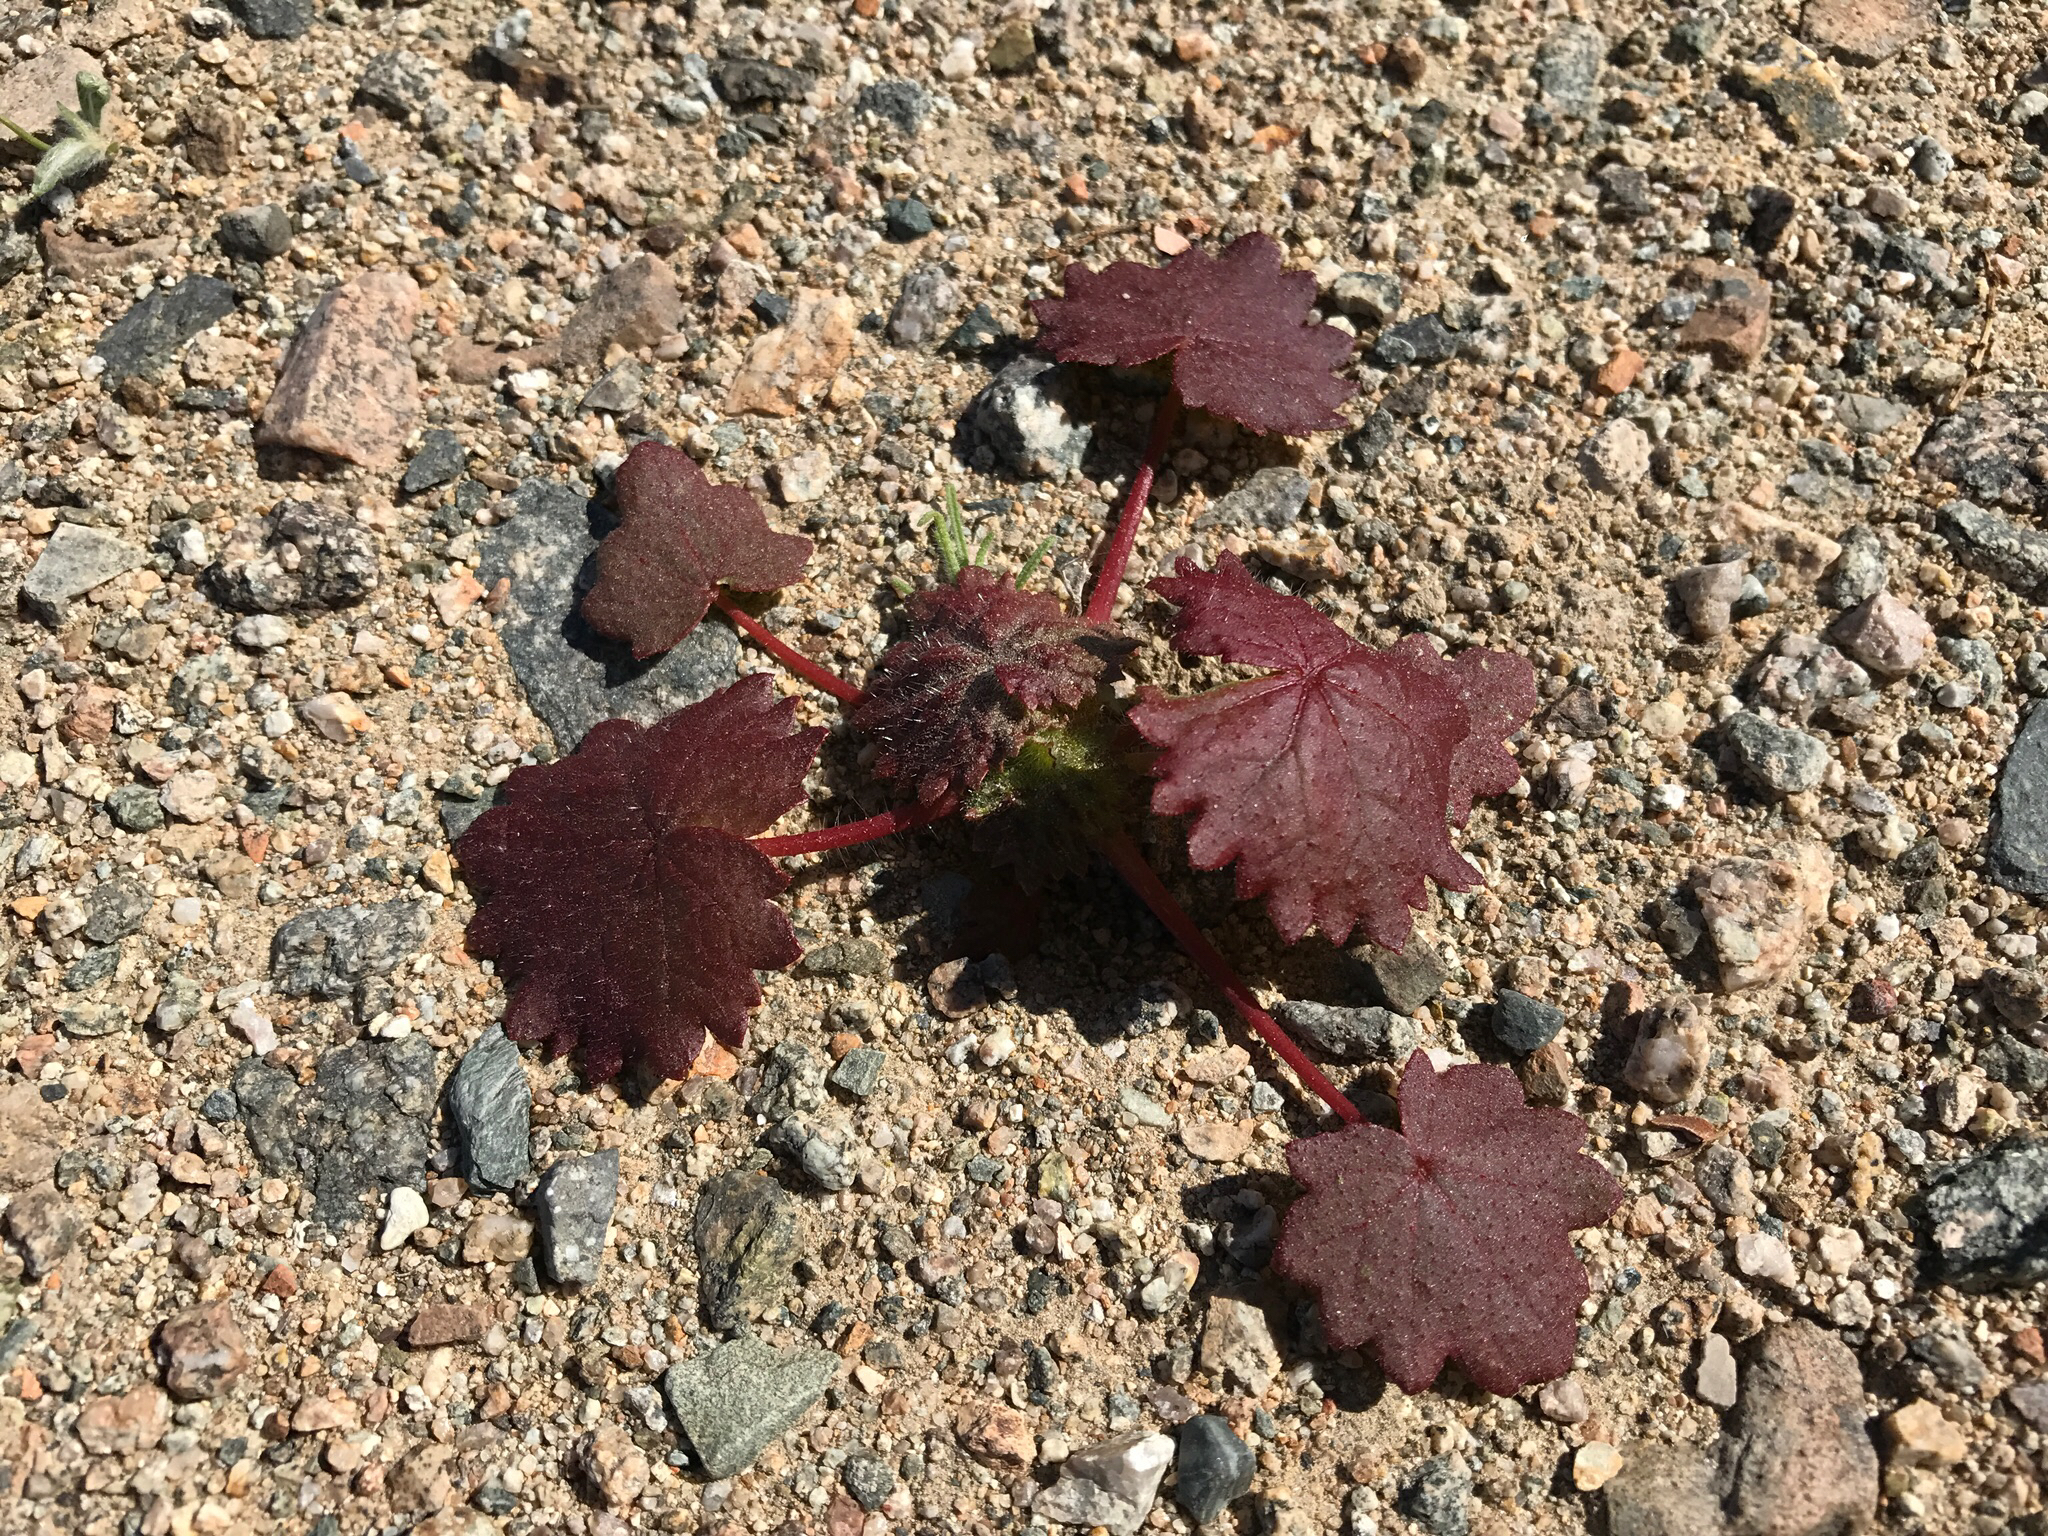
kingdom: Plantae
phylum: Tracheophyta
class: Magnoliopsida
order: Malvales
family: Malvaceae
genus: Eremalche
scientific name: Eremalche rotundifolia
